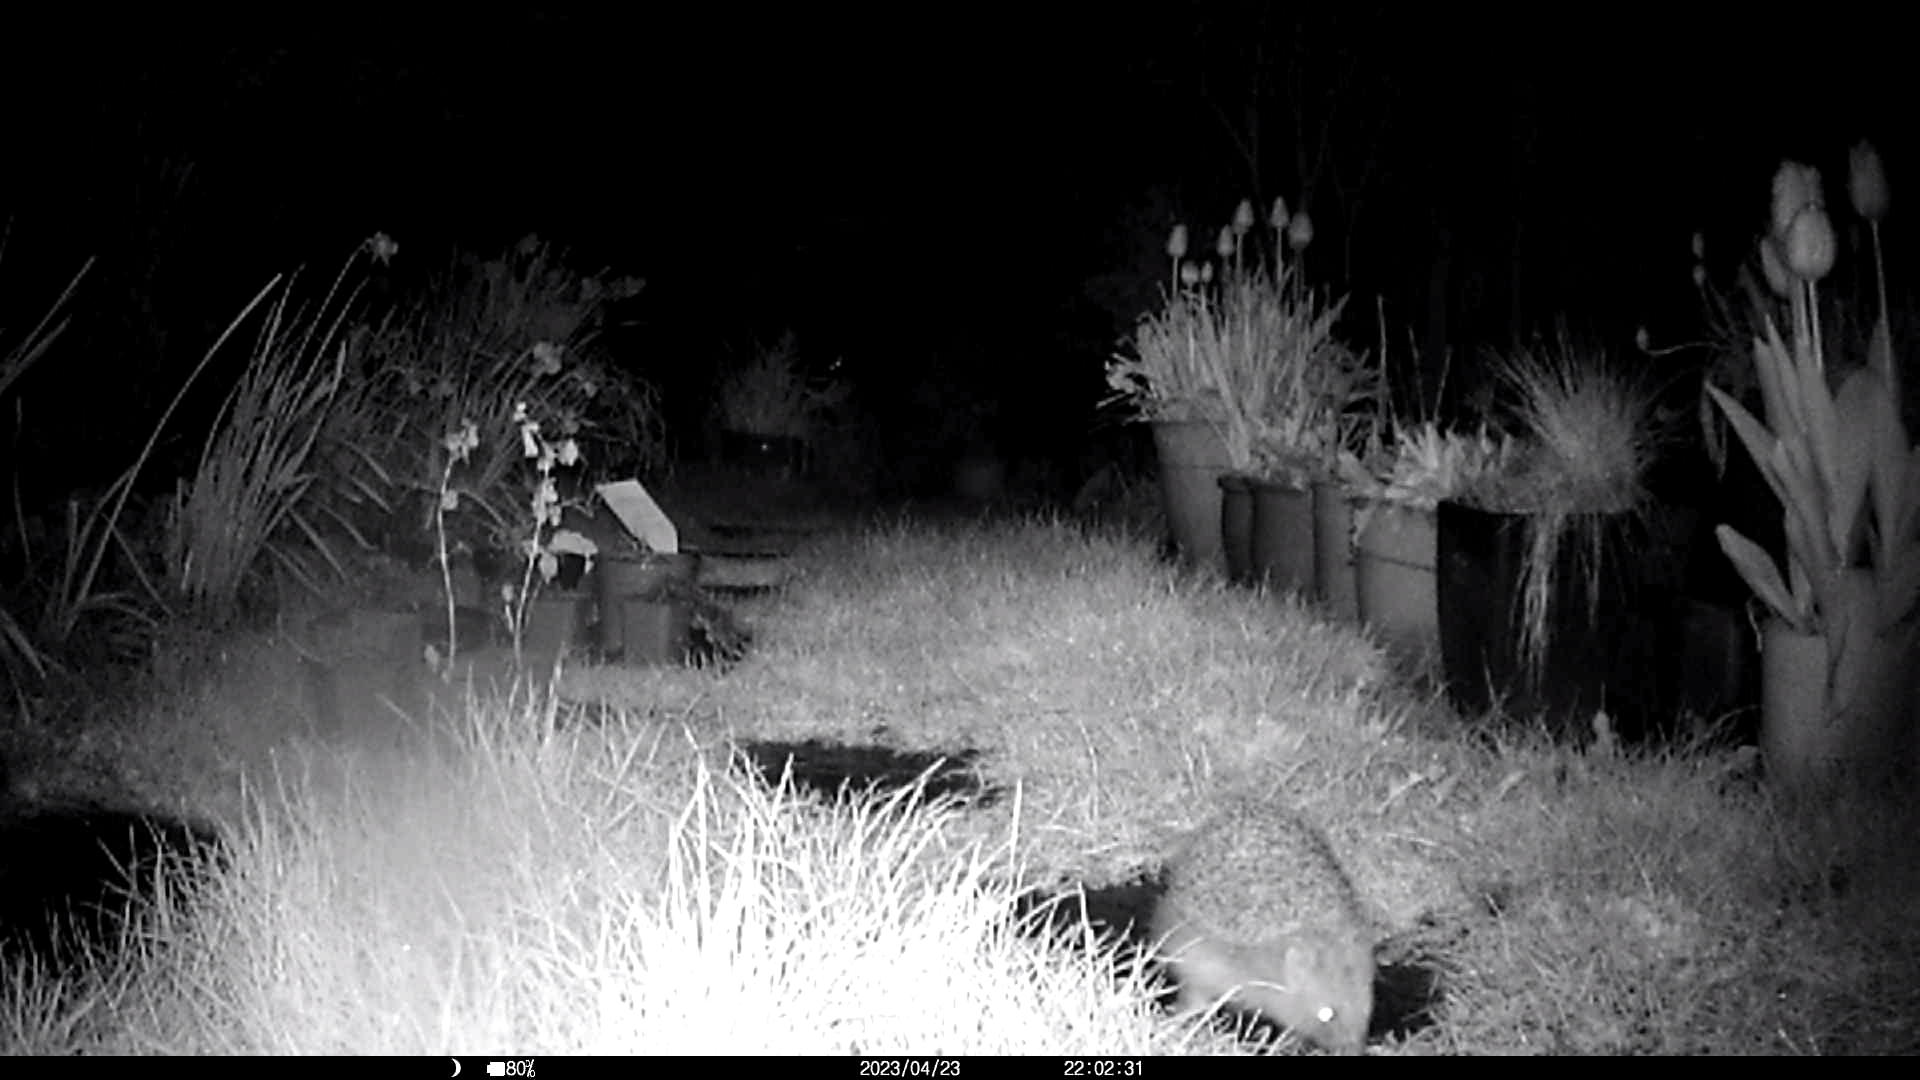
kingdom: Animalia
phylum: Chordata
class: Mammalia
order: Erinaceomorpha
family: Erinaceidae
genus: Erinaceus
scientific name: Erinaceus europaeus
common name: West european hedgehog
